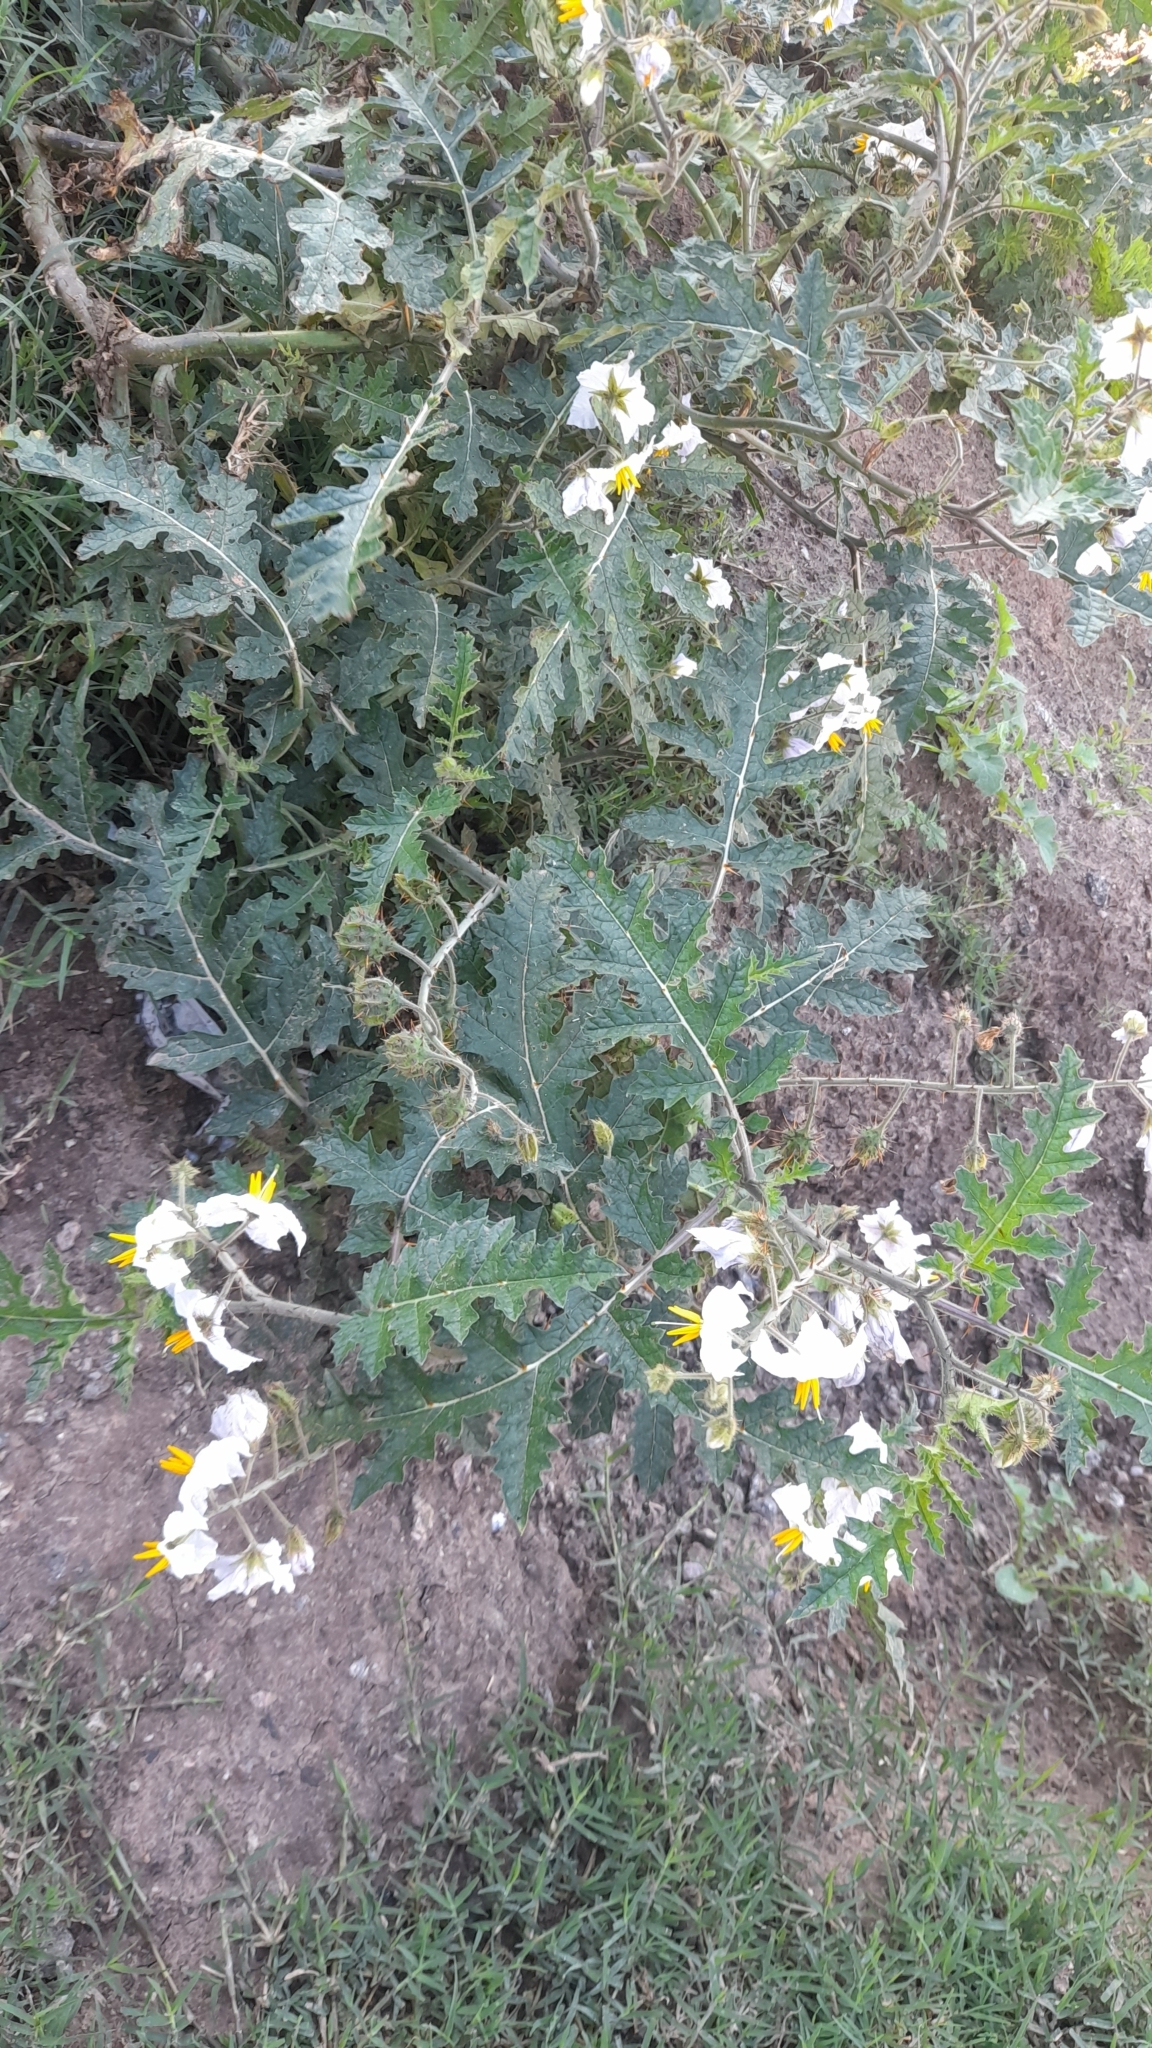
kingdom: Plantae
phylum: Tracheophyta
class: Magnoliopsida
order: Solanales
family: Solanaceae
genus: Solanum
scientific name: Solanum sisymbriifolium
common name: Red buffalo-bur
